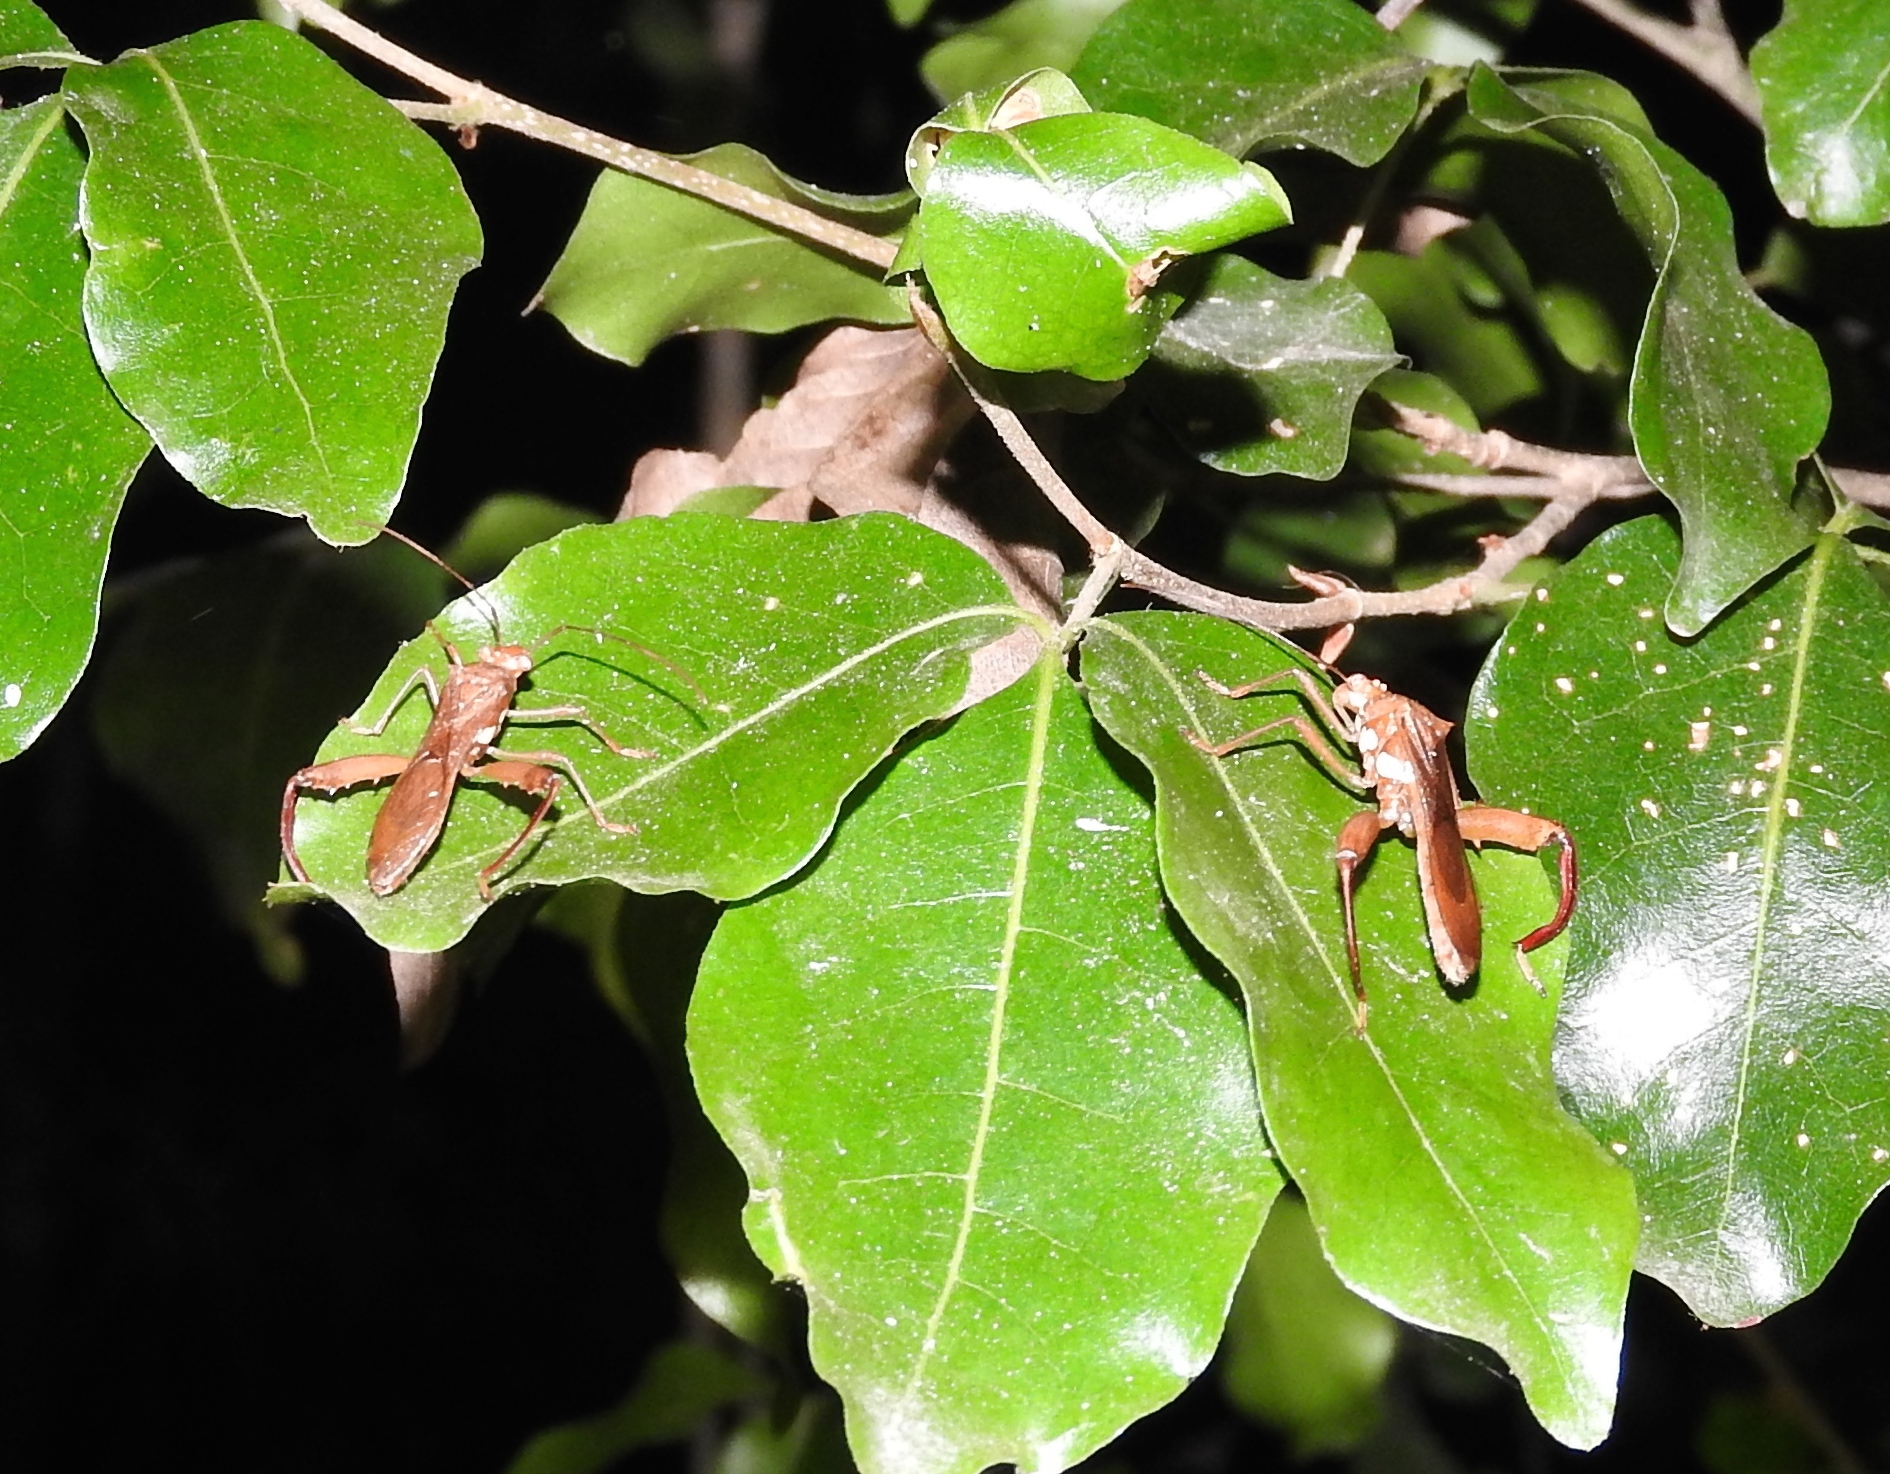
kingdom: Animalia
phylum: Arthropoda
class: Insecta
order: Hemiptera
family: Alydidae
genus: Hyalymenus
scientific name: Hyalymenus
